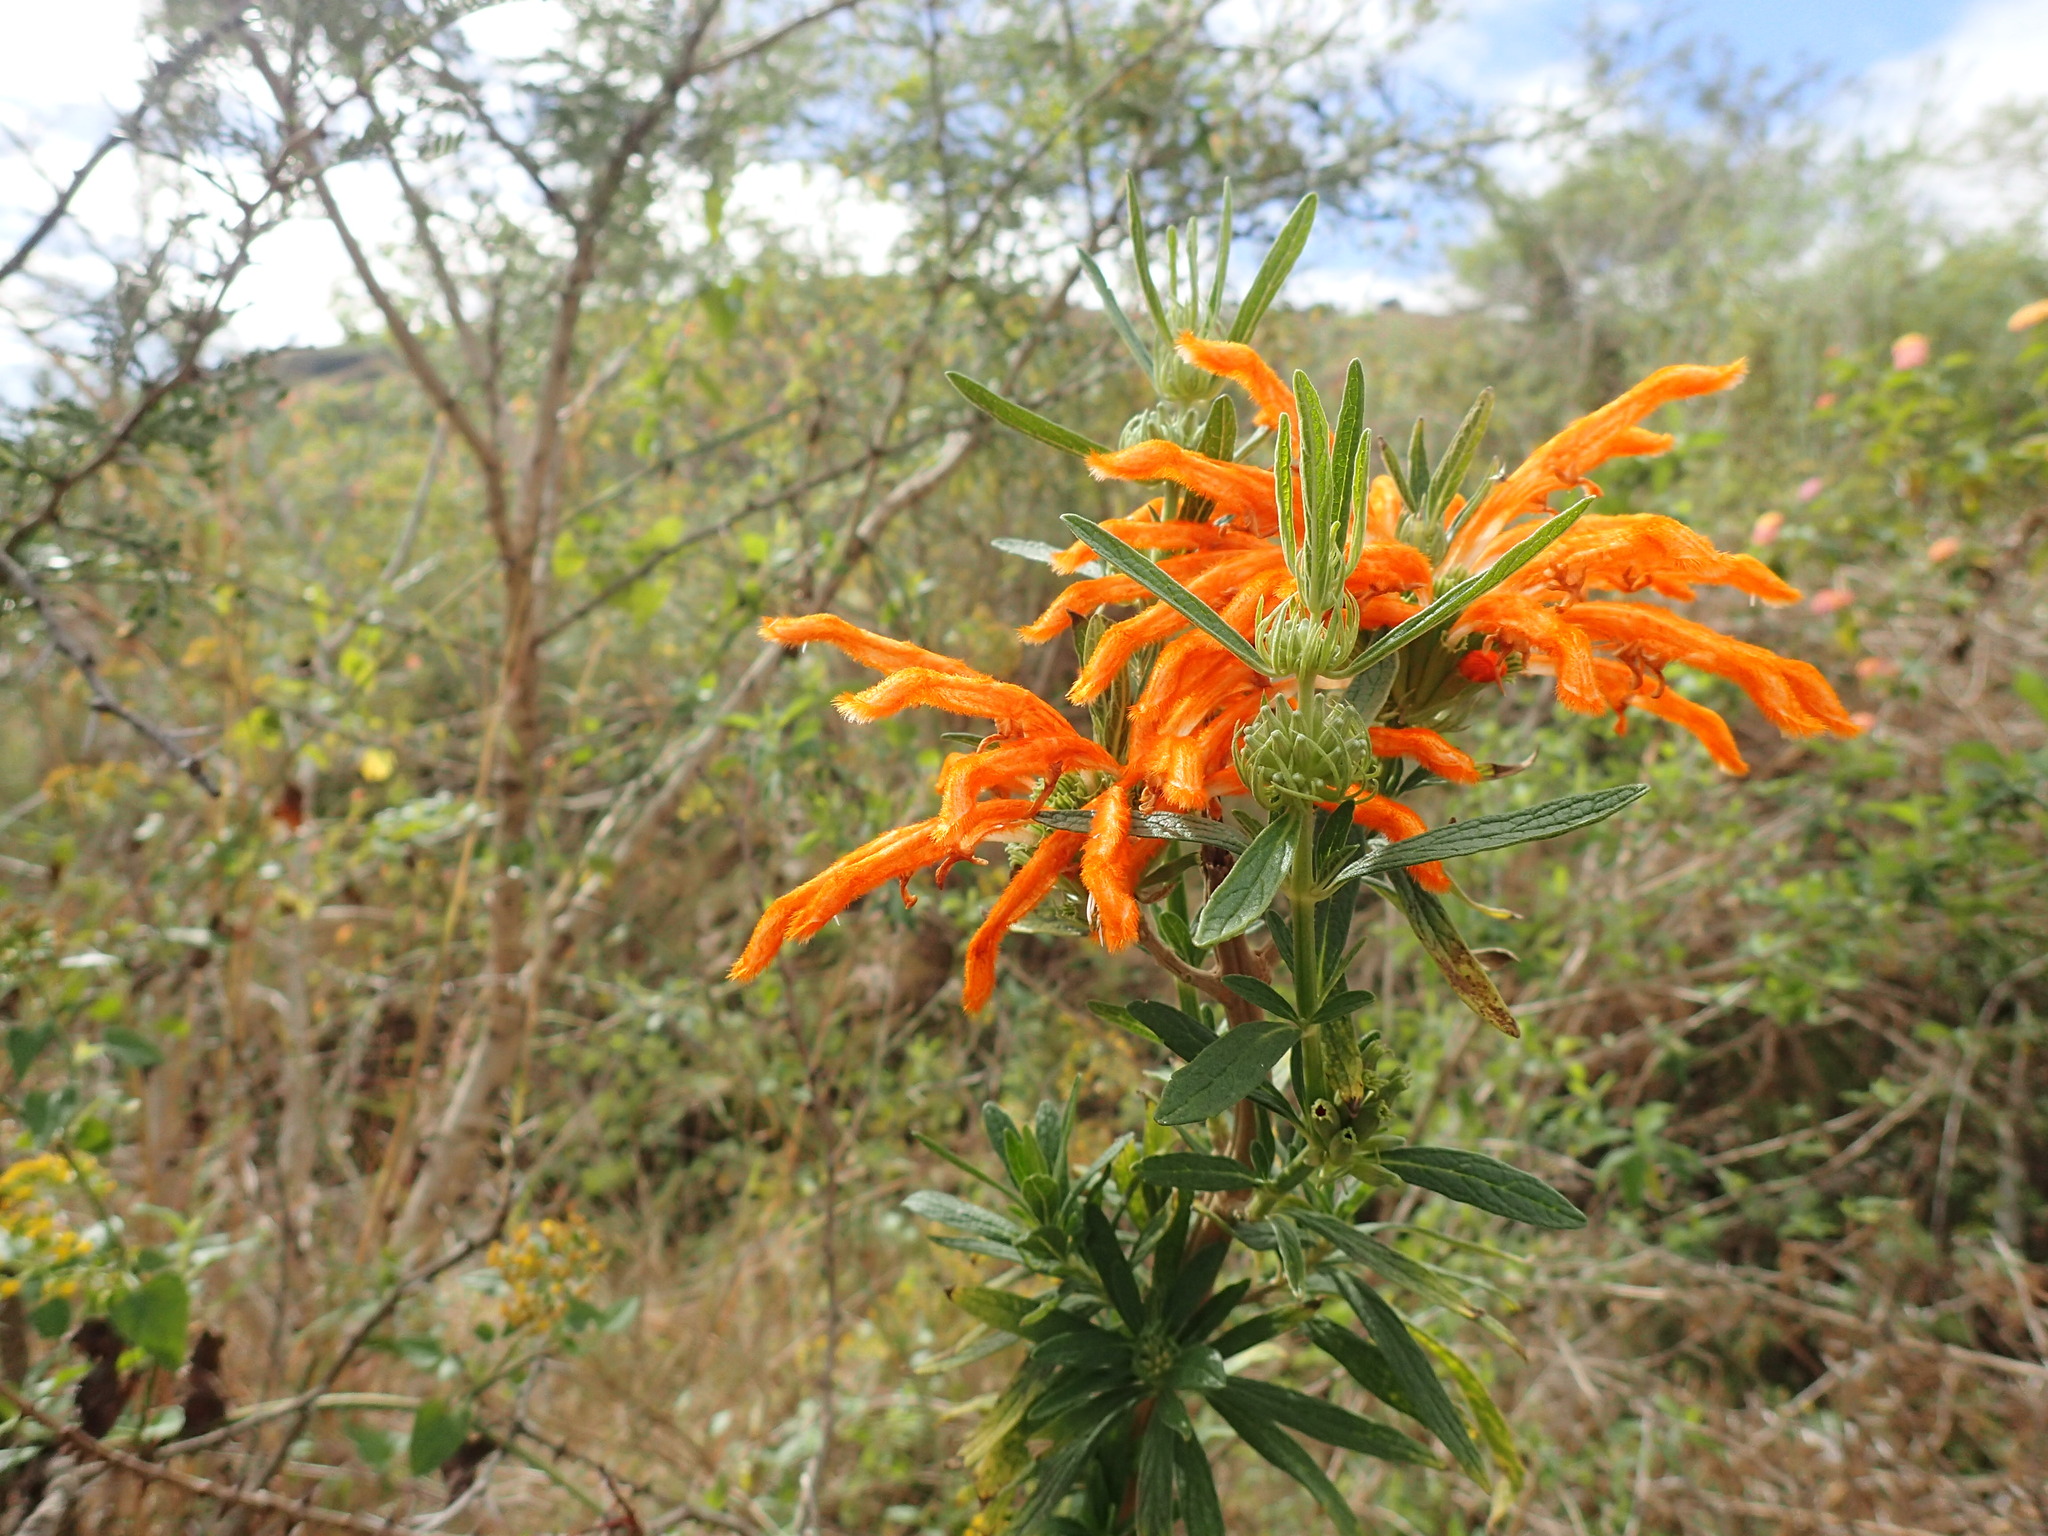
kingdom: Plantae
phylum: Tracheophyta
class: Magnoliopsida
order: Lamiales
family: Lamiaceae
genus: Leonotis
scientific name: Leonotis leonurus
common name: Lion's ear
